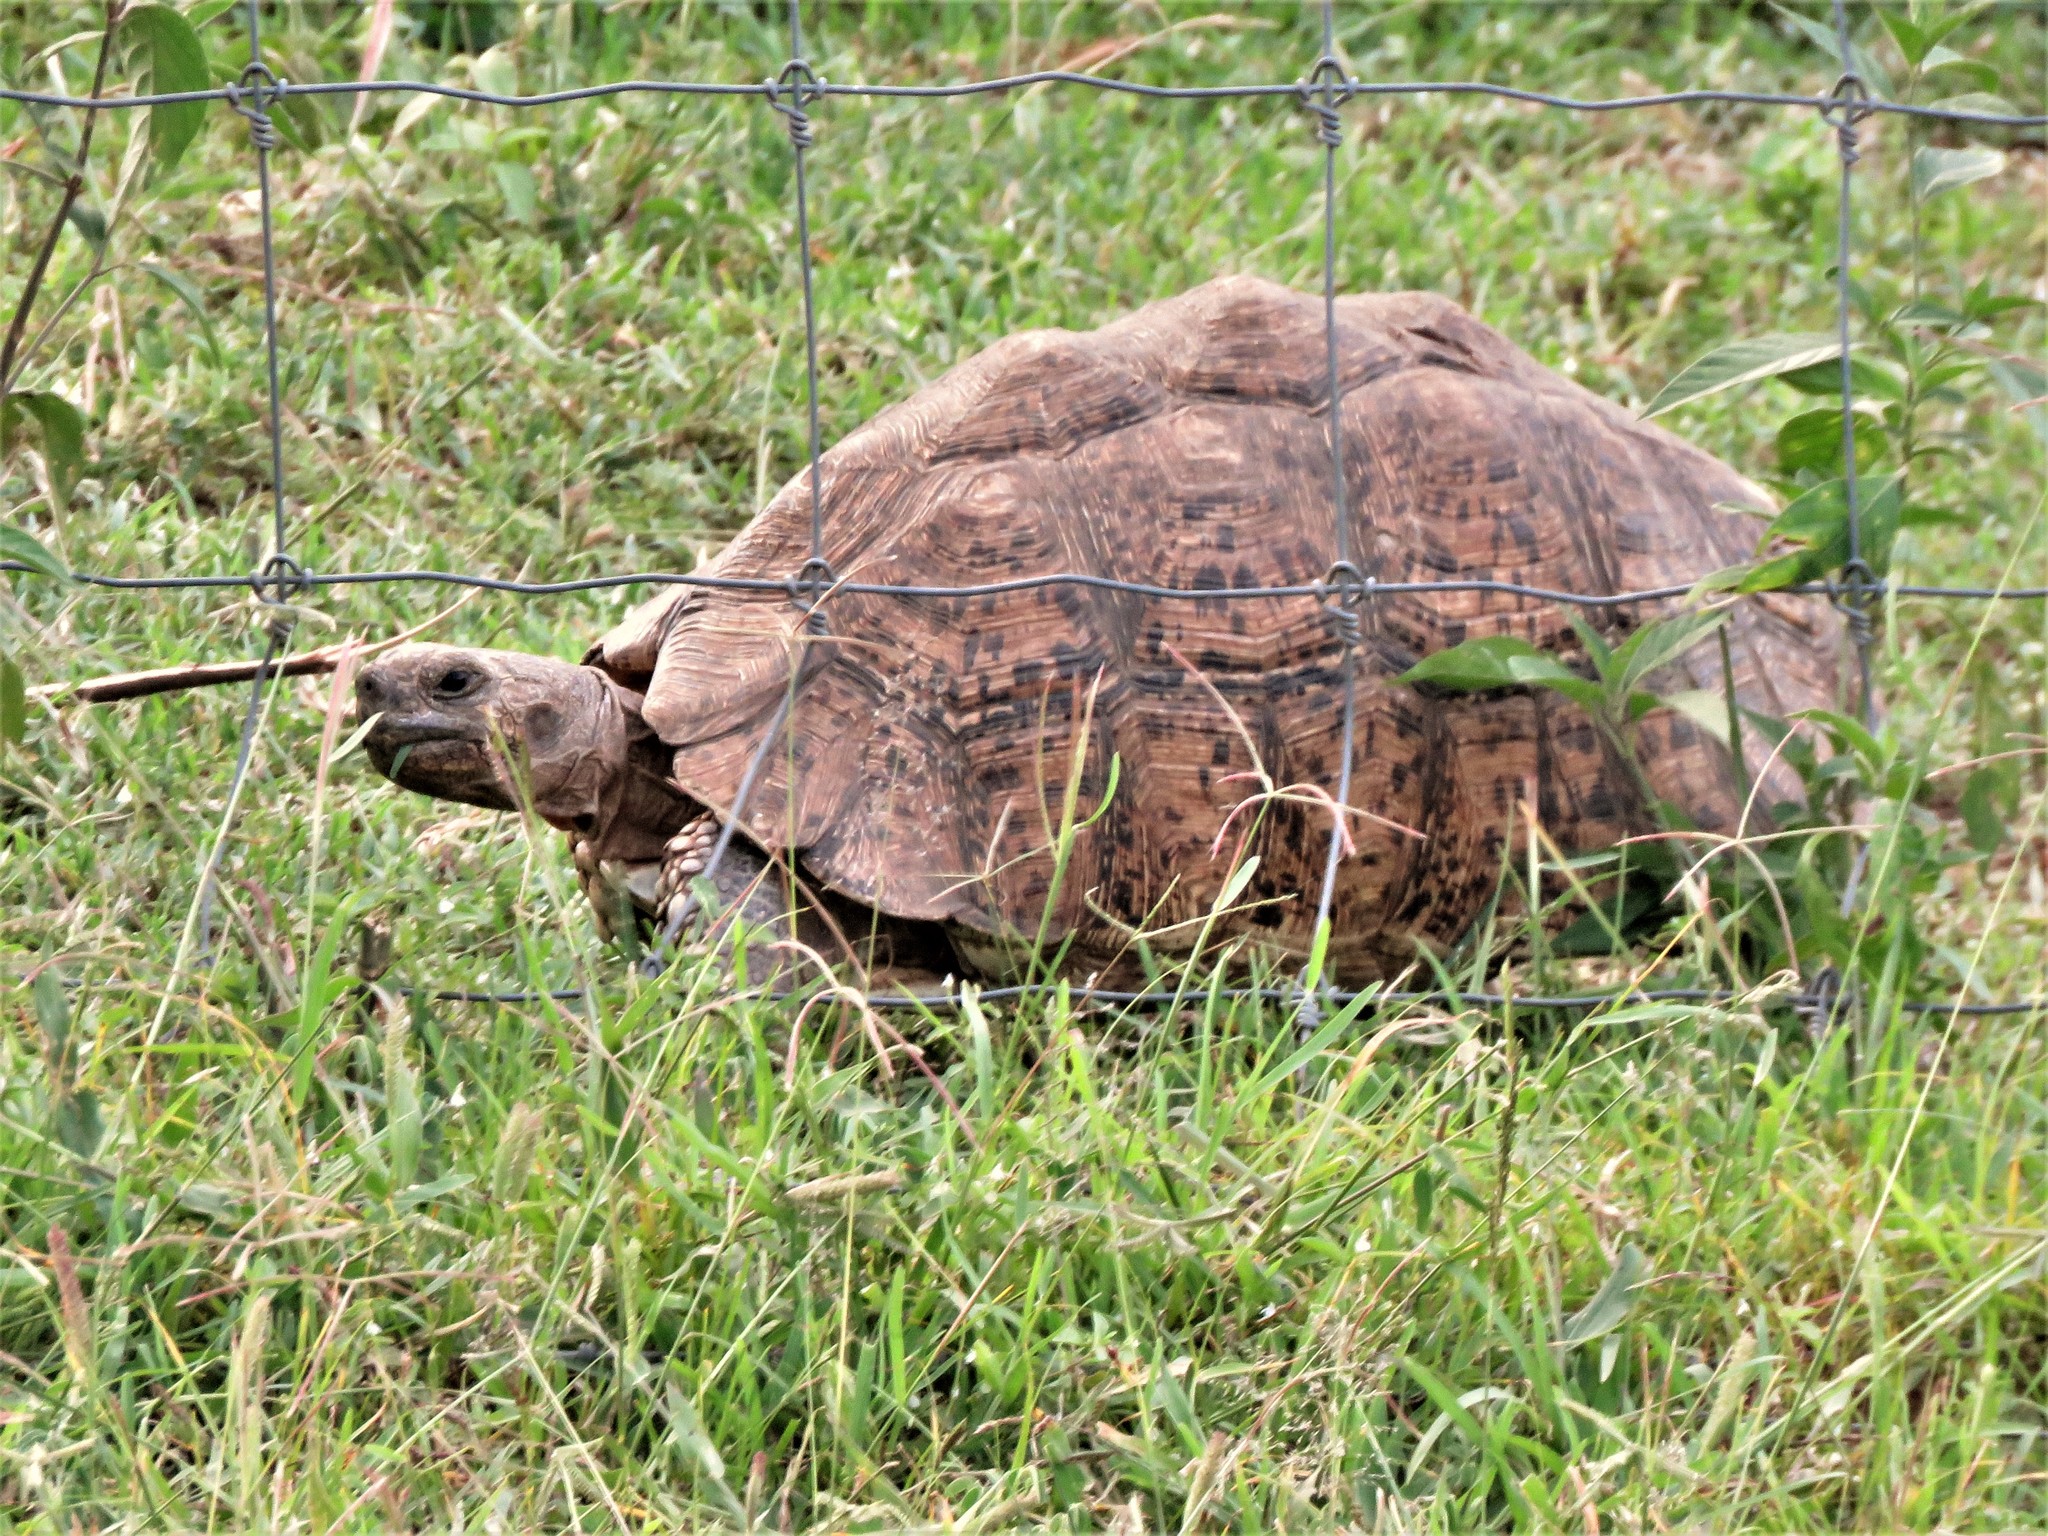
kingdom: Animalia
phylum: Chordata
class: Testudines
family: Testudinidae
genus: Stigmochelys
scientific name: Stigmochelys pardalis
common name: Leopard tortoise
